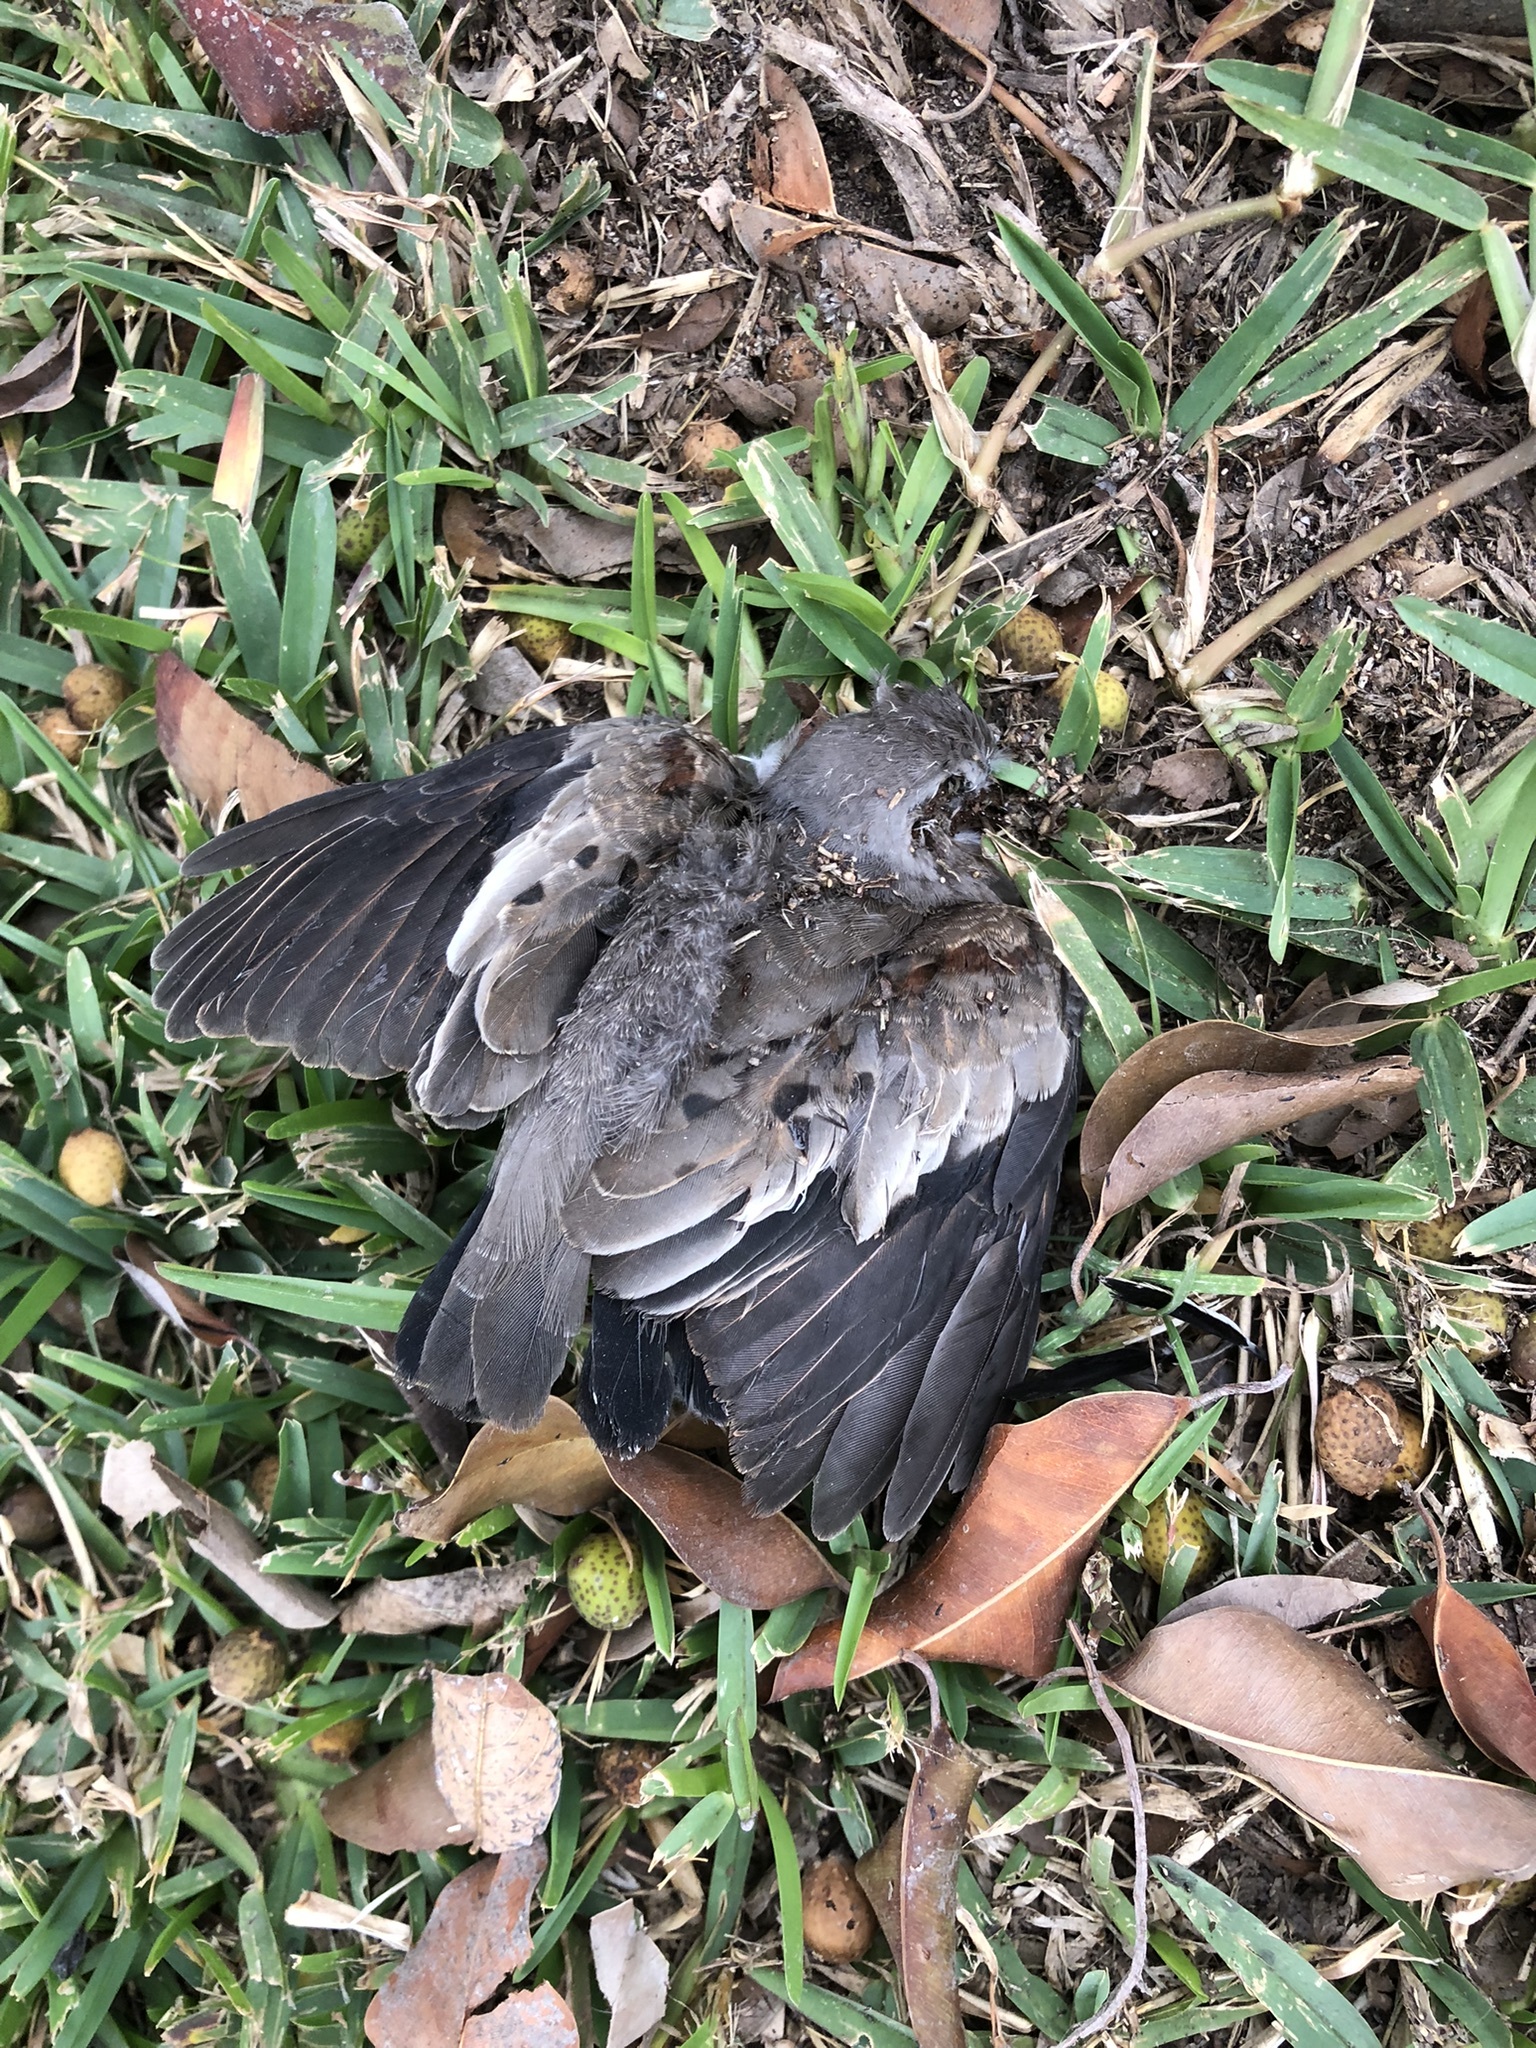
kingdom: Animalia
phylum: Chordata
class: Aves
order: Columbiformes
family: Columbidae
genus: Columbina
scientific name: Columbina cruziana
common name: Croaking ground dove
